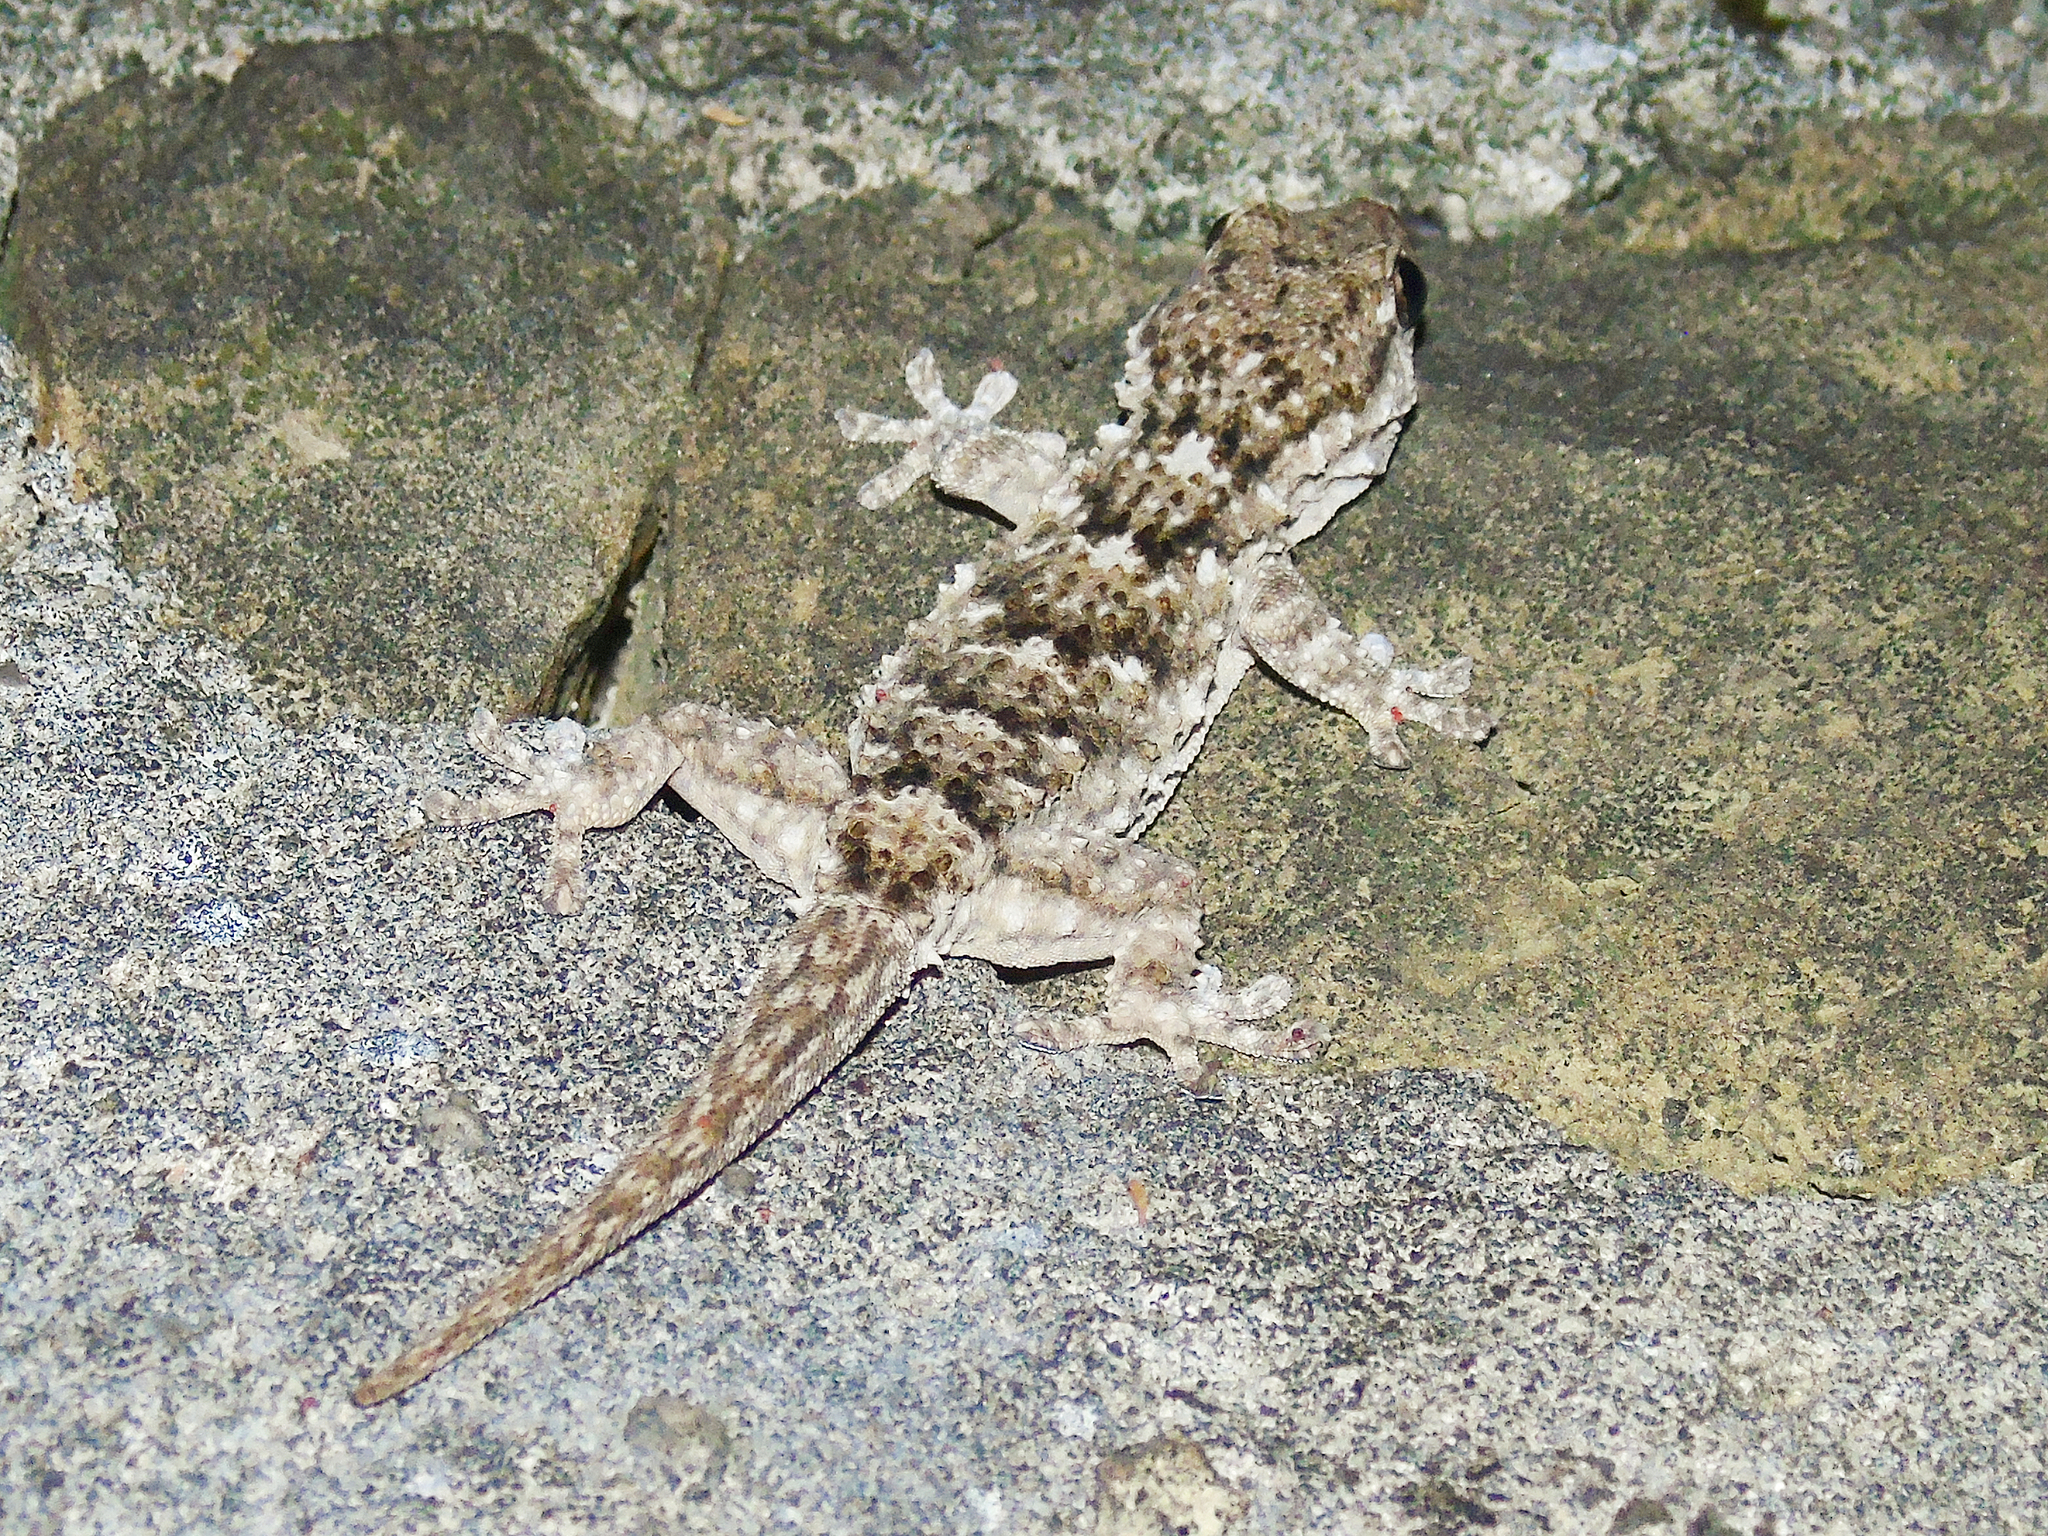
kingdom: Animalia
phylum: Chordata
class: Squamata
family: Phyllodactylidae
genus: Tarentola
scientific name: Tarentola mauritanica
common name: Moorish gecko
